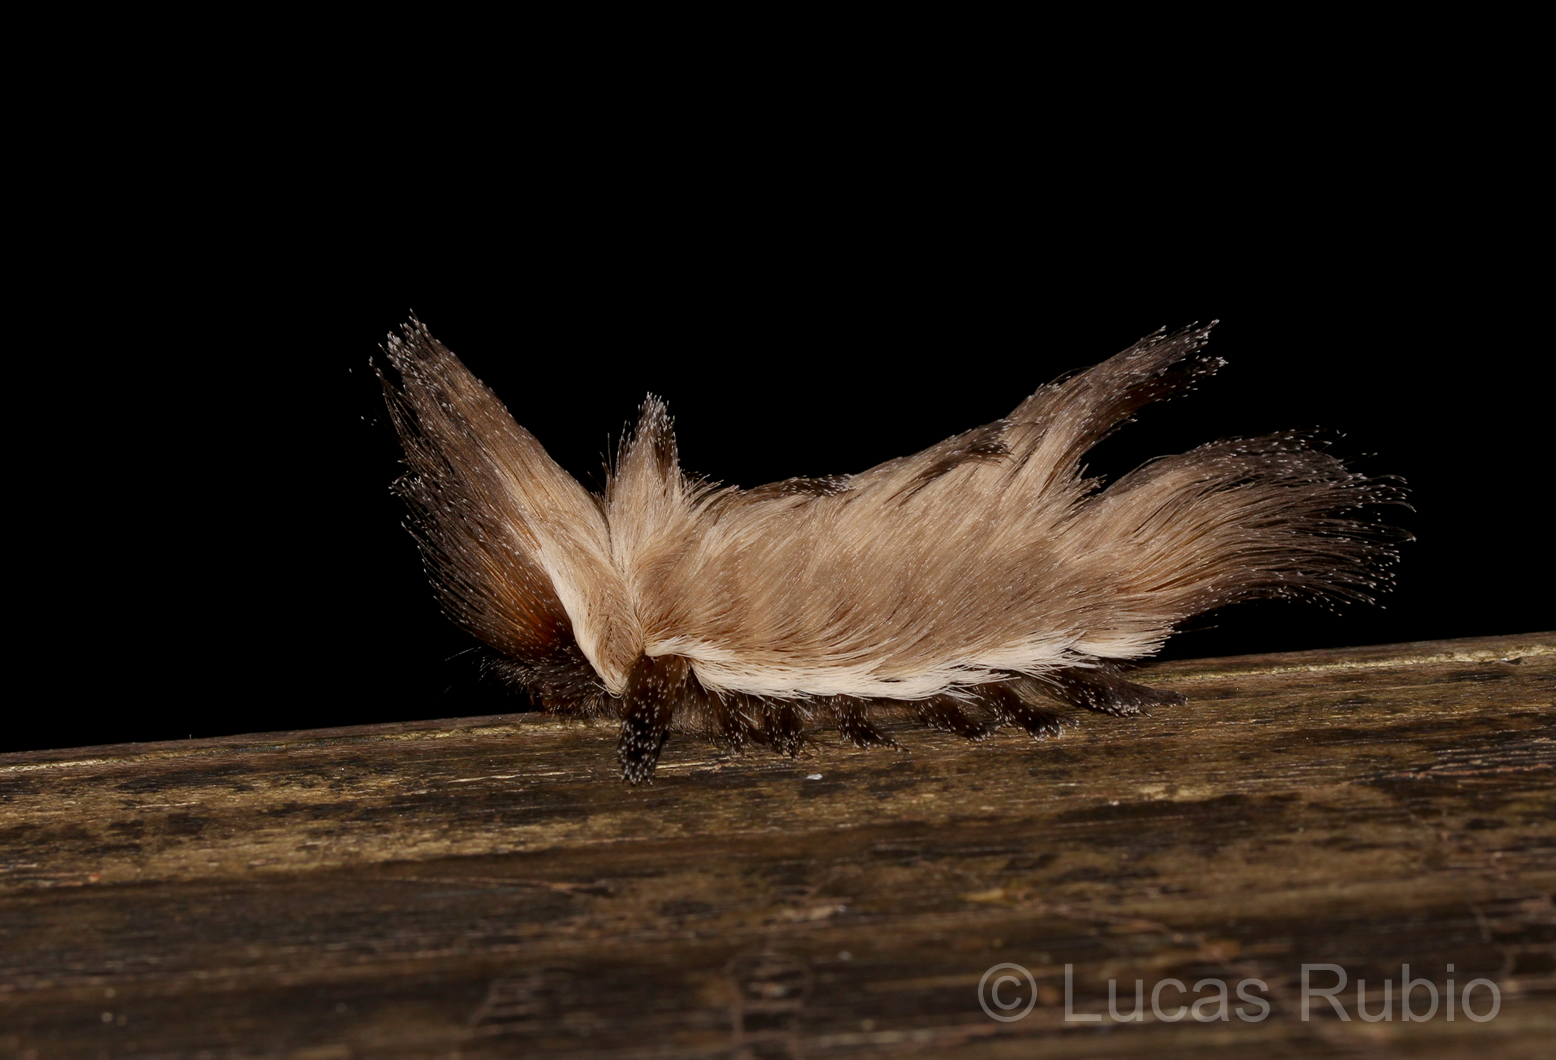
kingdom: Animalia
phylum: Arthropoda
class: Insecta
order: Lepidoptera
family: Megalopygidae
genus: Podalia
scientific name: Podalia schadei
